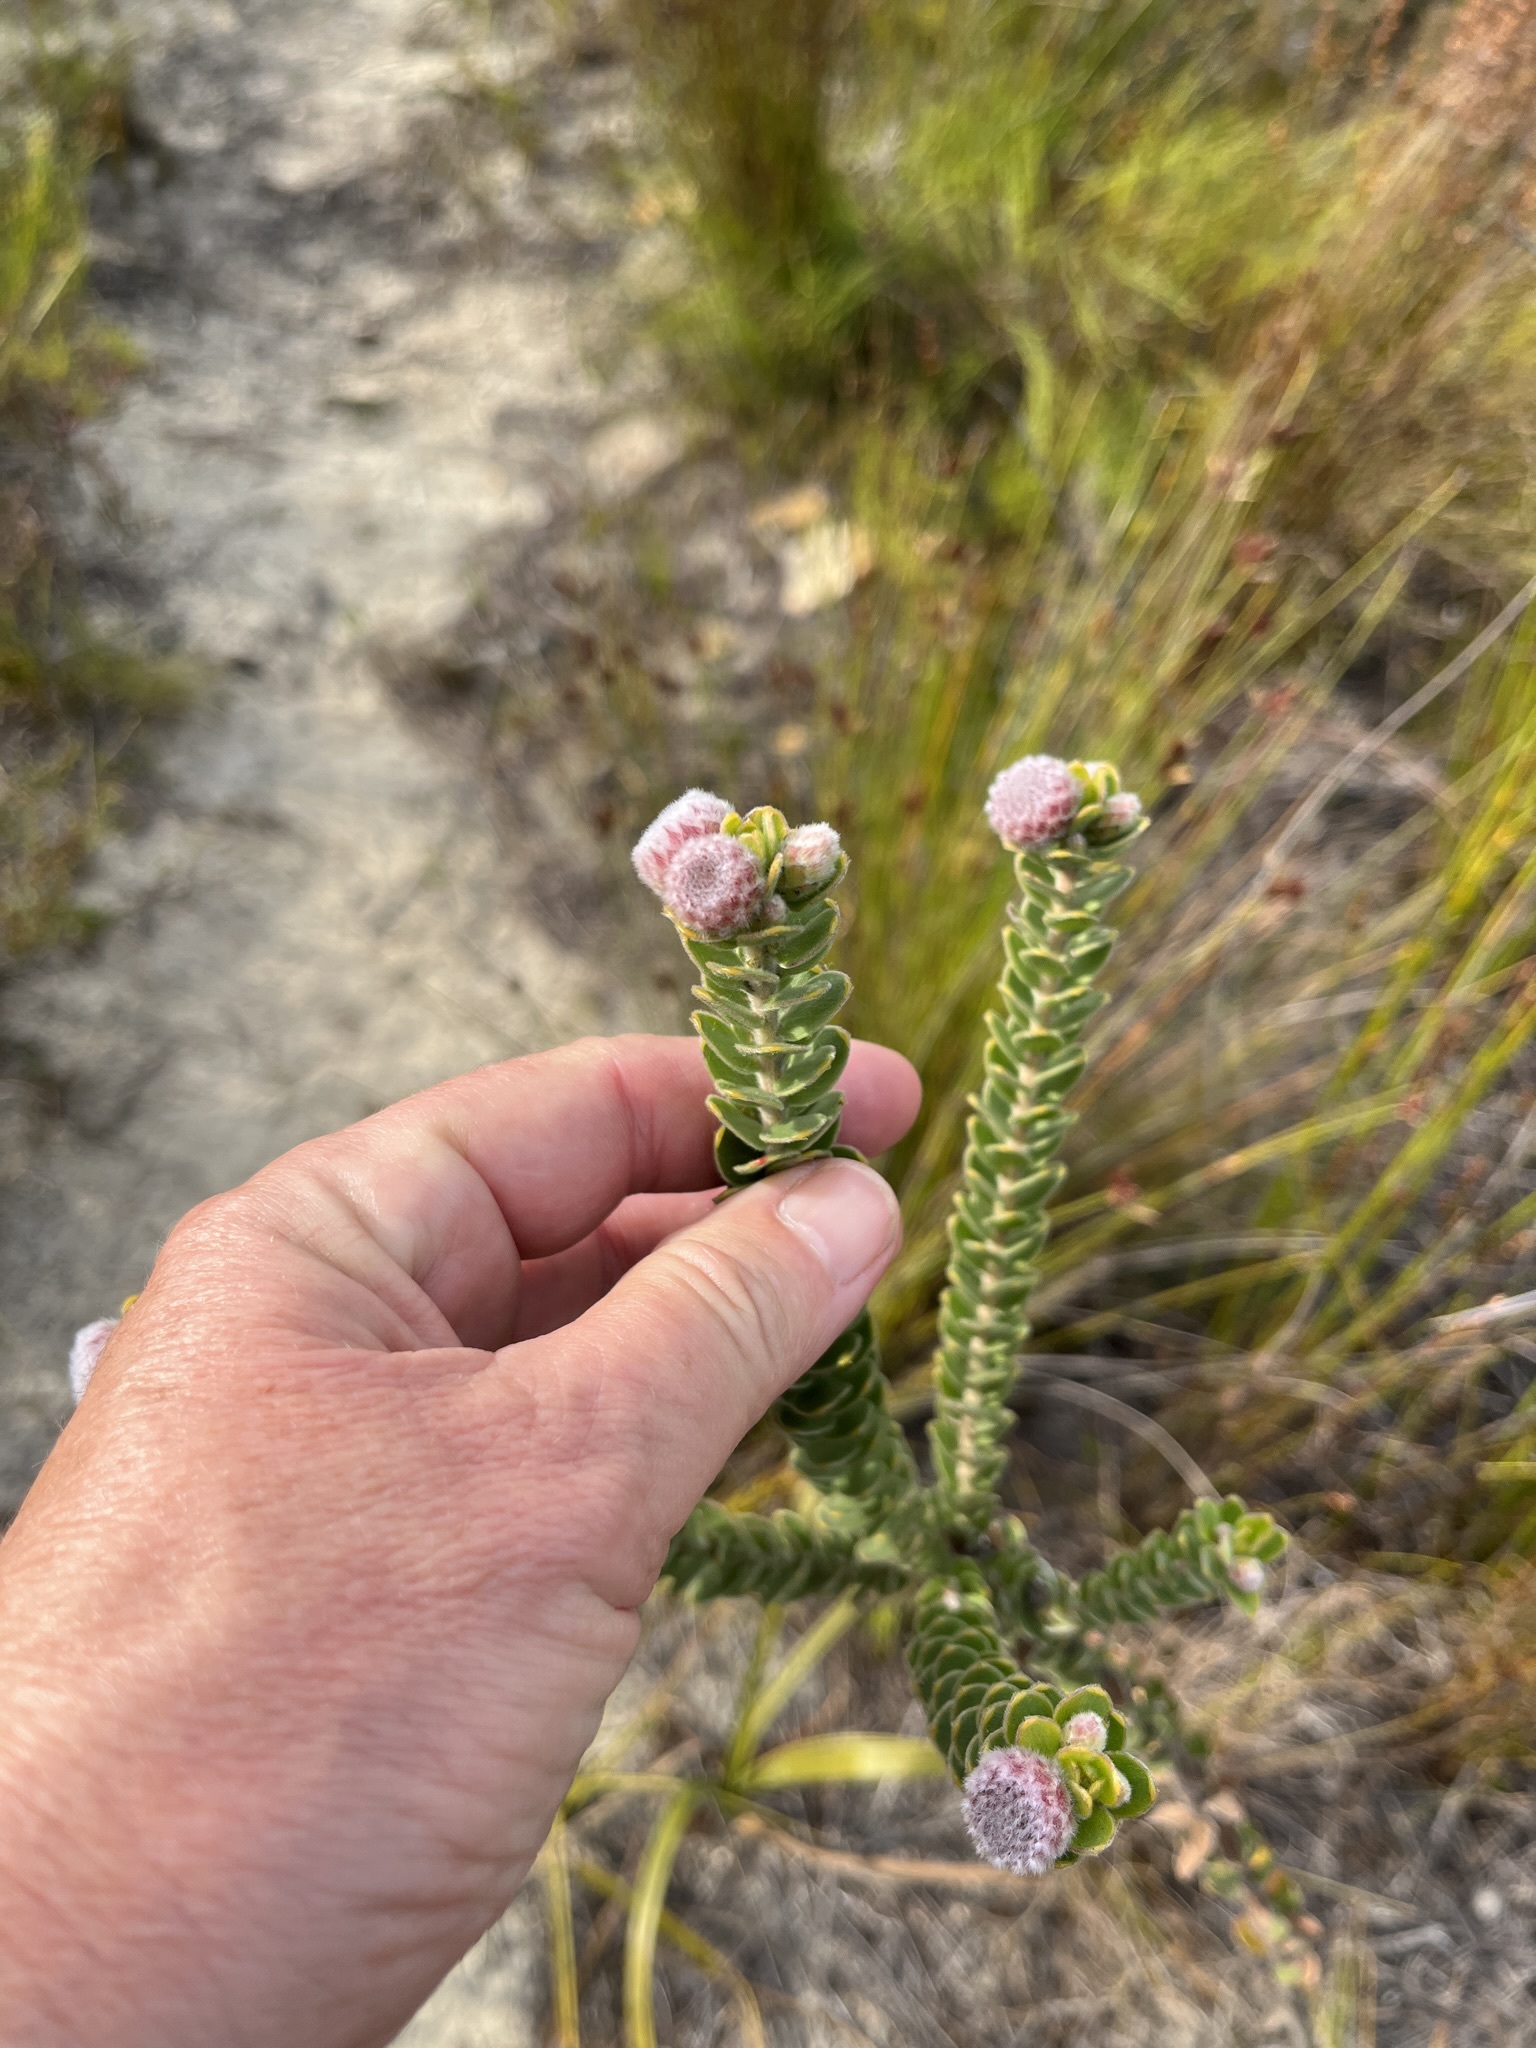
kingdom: Plantae
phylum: Tracheophyta
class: Magnoliopsida
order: Proteales
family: Proteaceae
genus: Leucospermum
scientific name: Leucospermum truncatulum
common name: Oval-leaf pincushion
